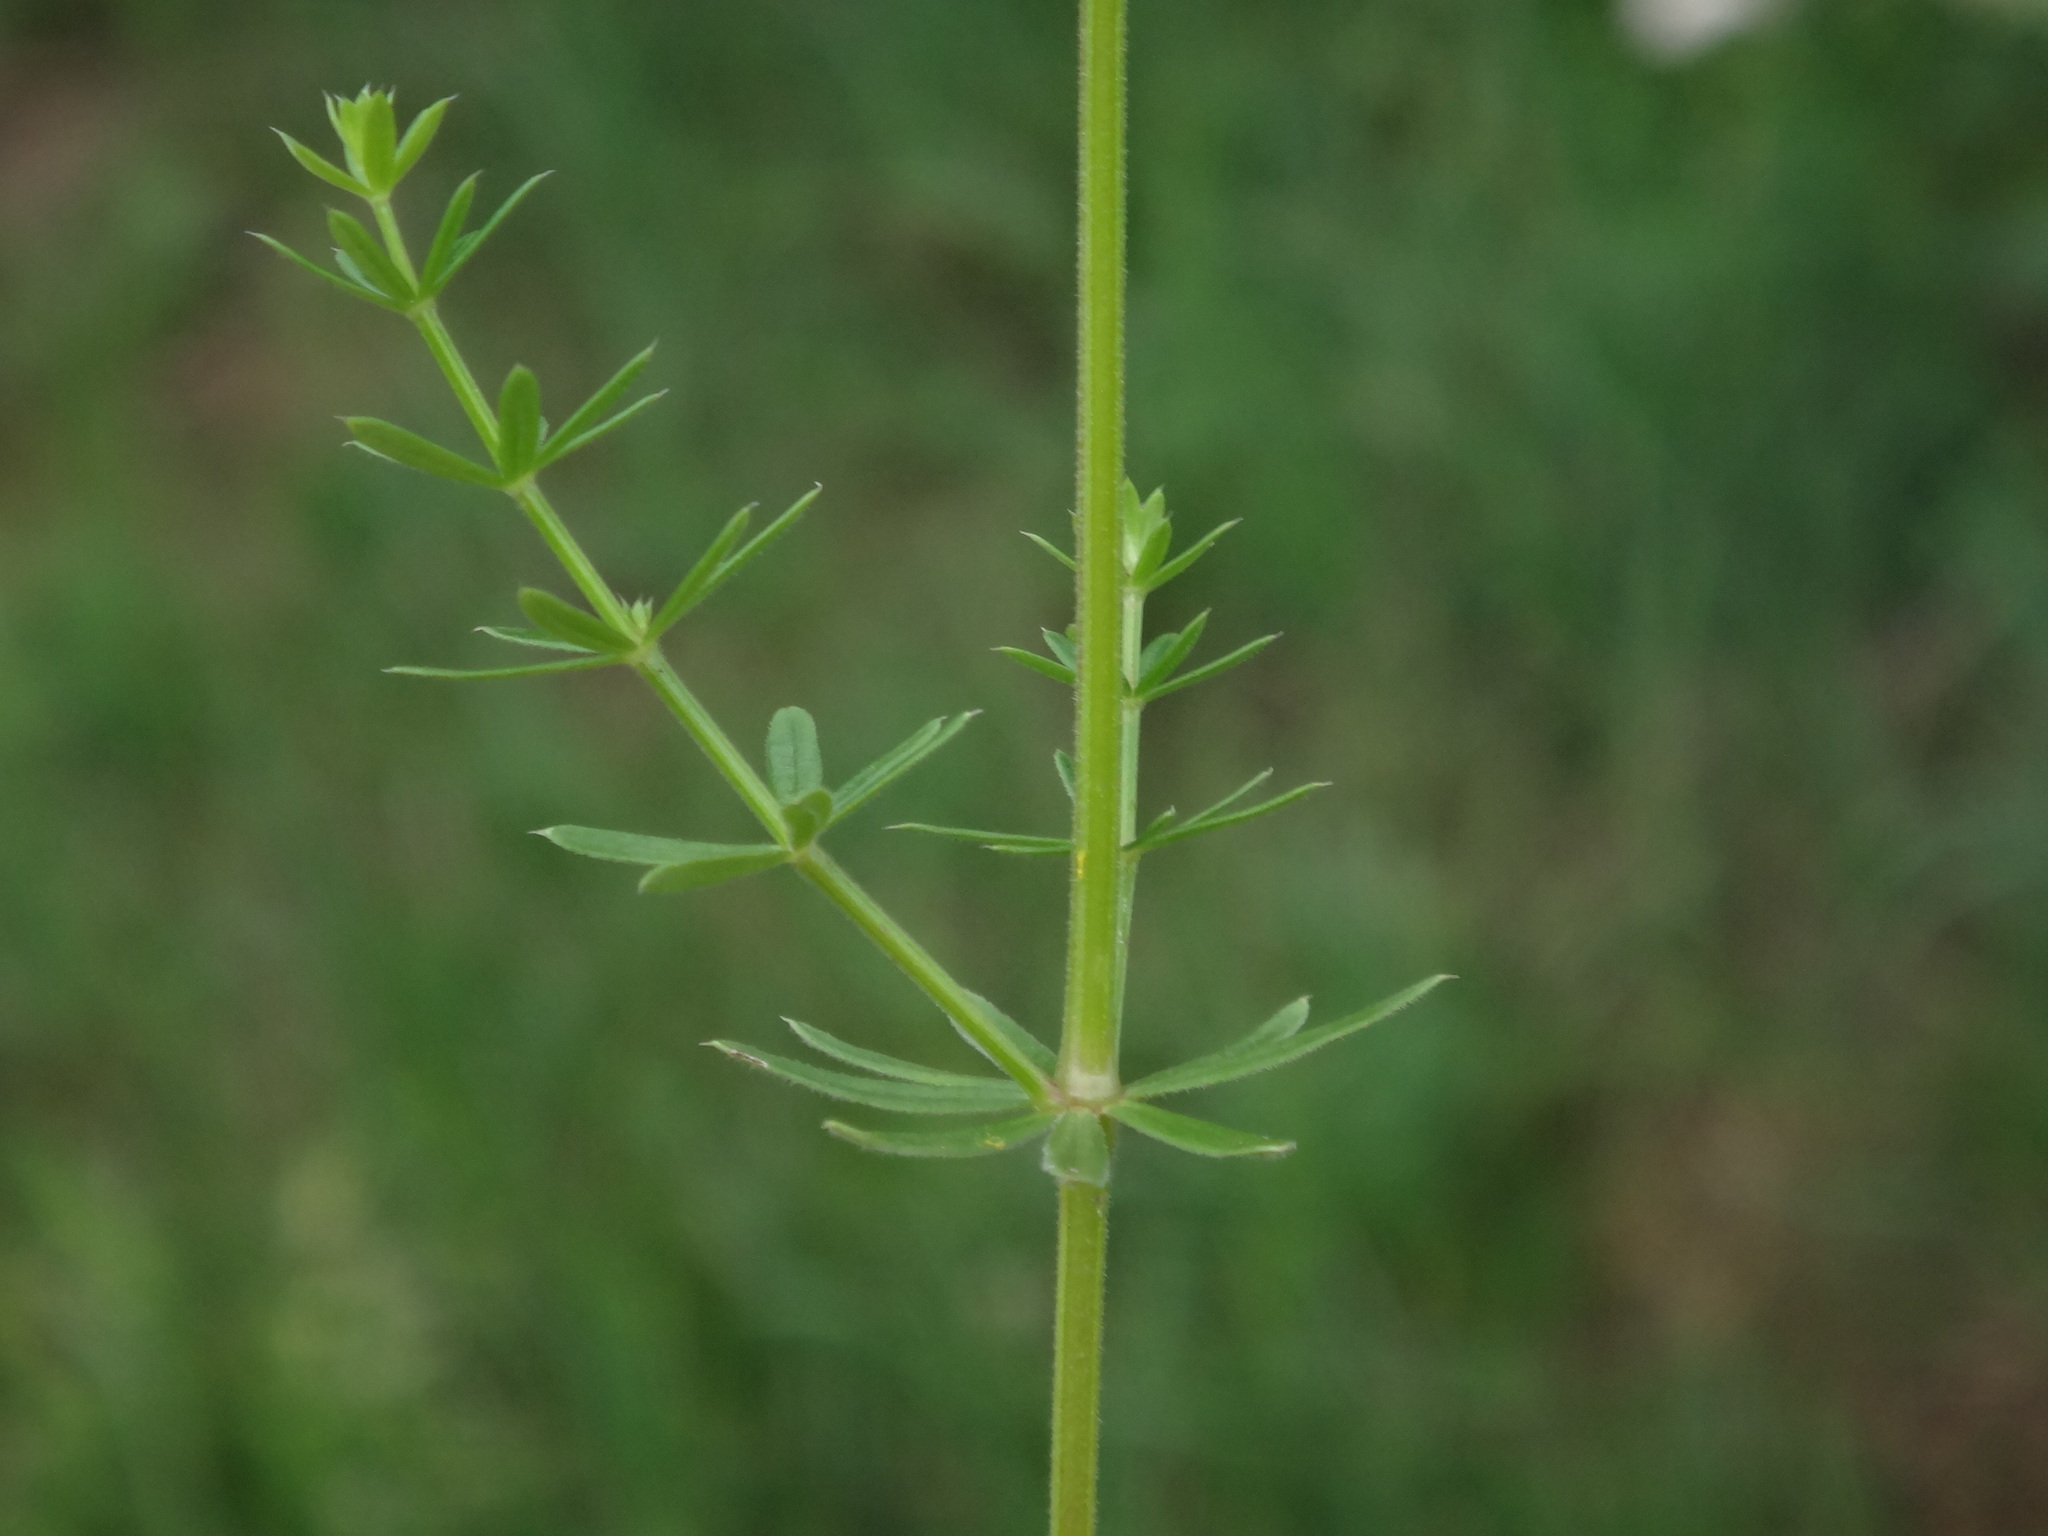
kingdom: Plantae
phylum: Tracheophyta
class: Magnoliopsida
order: Gentianales
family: Rubiaceae
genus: Galium
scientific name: Galium album
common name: White bedstraw
